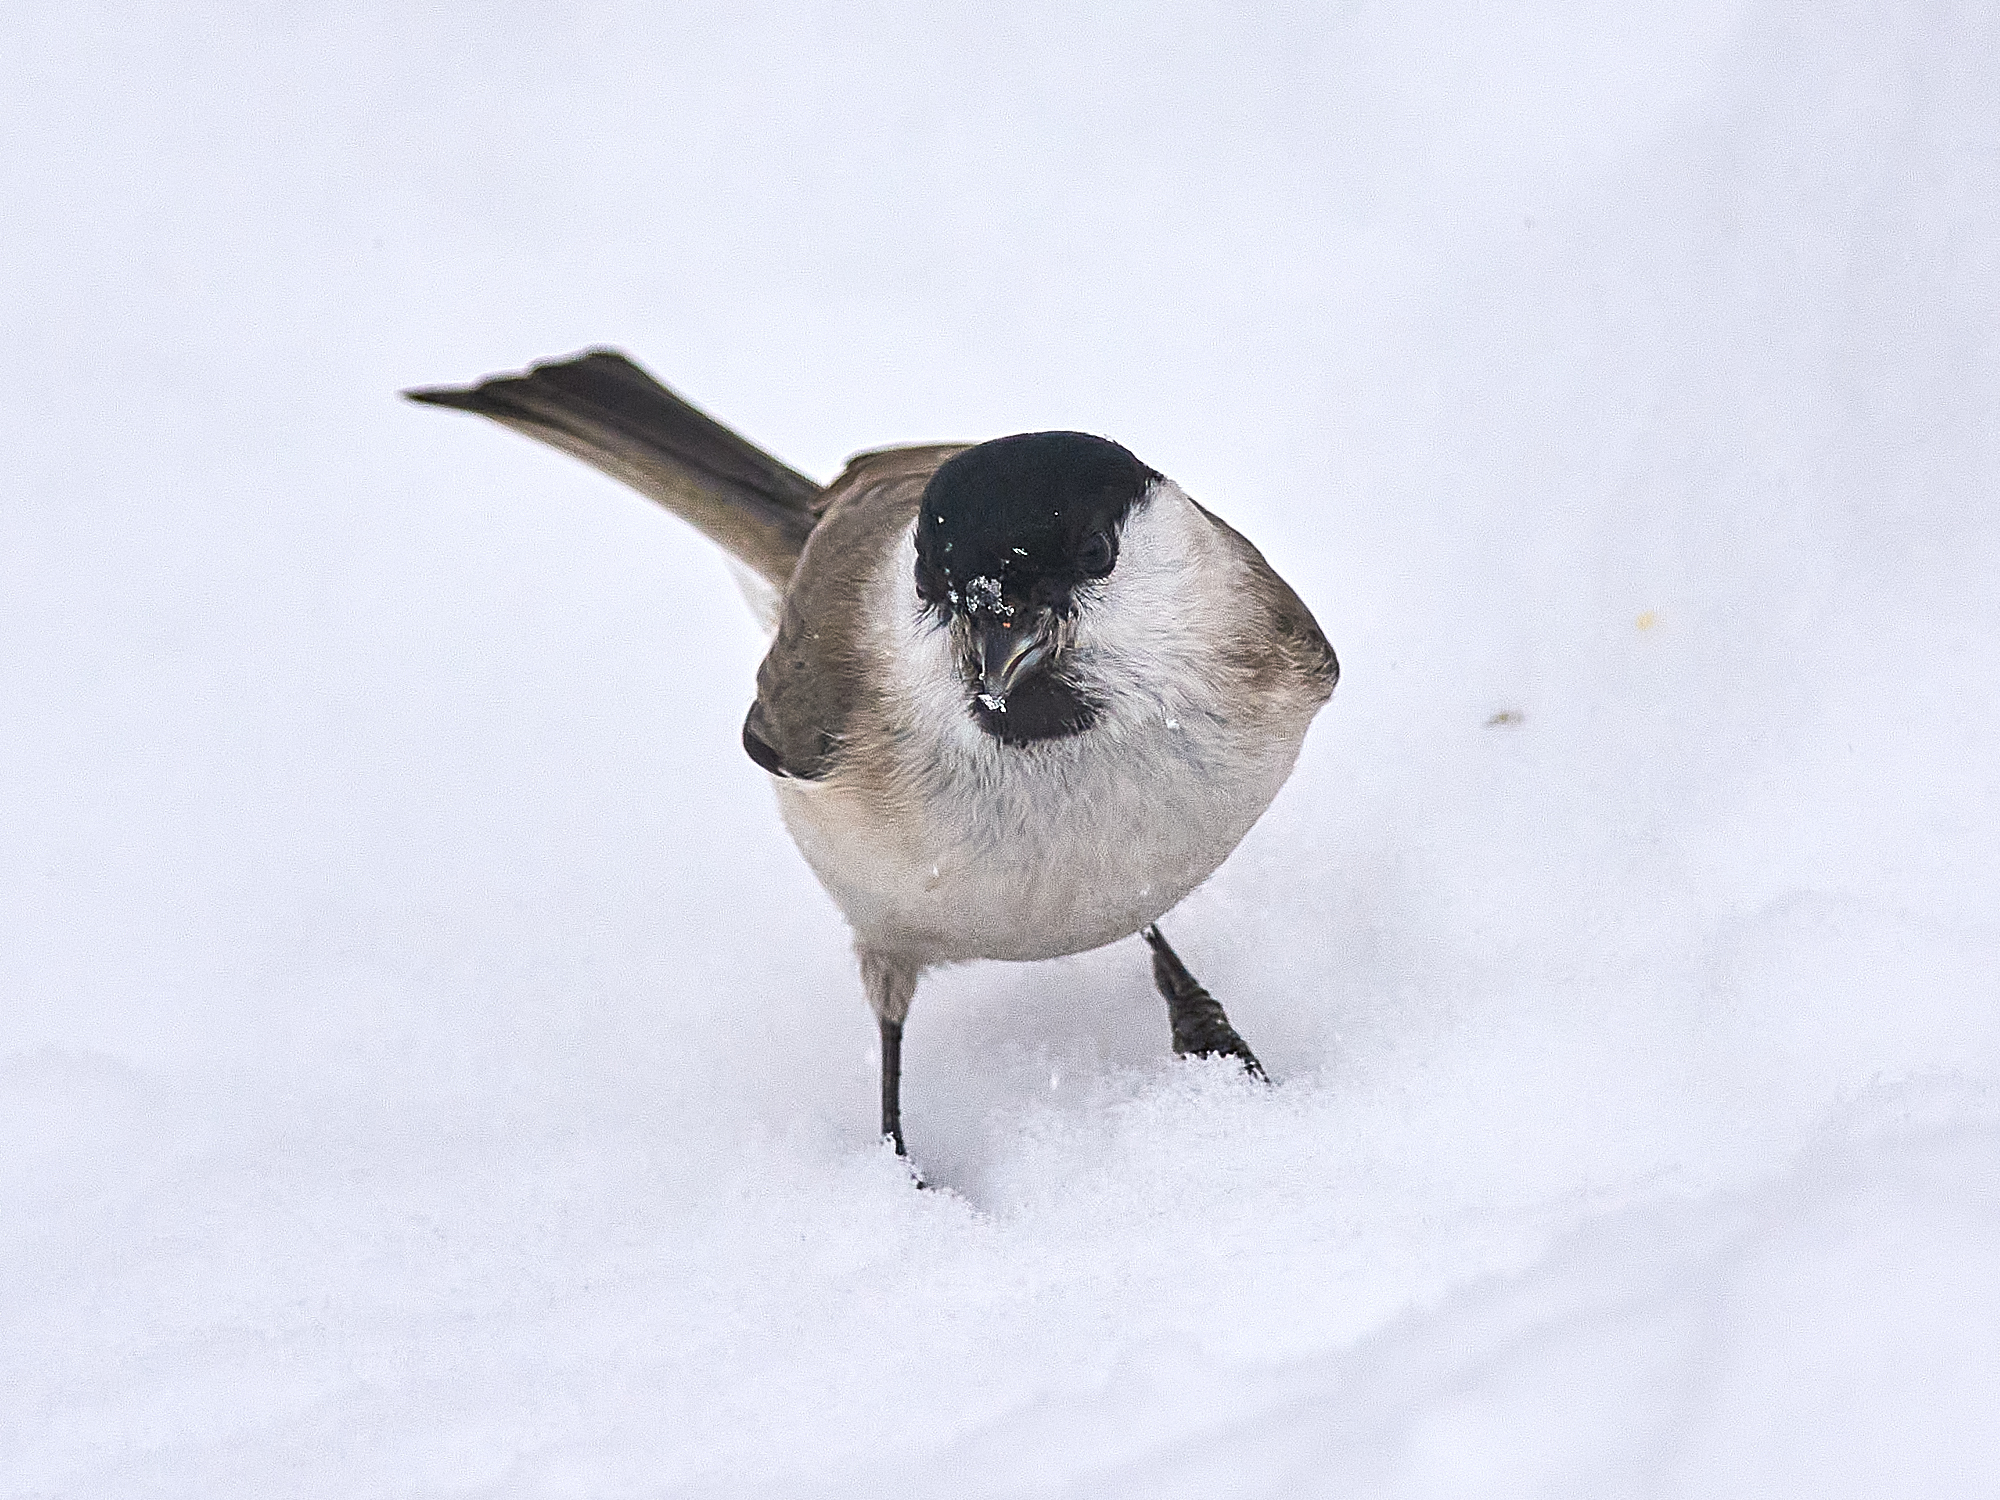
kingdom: Animalia
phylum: Chordata
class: Aves
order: Passeriformes
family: Paridae
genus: Poecile
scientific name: Poecile palustris
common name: Marsh tit
